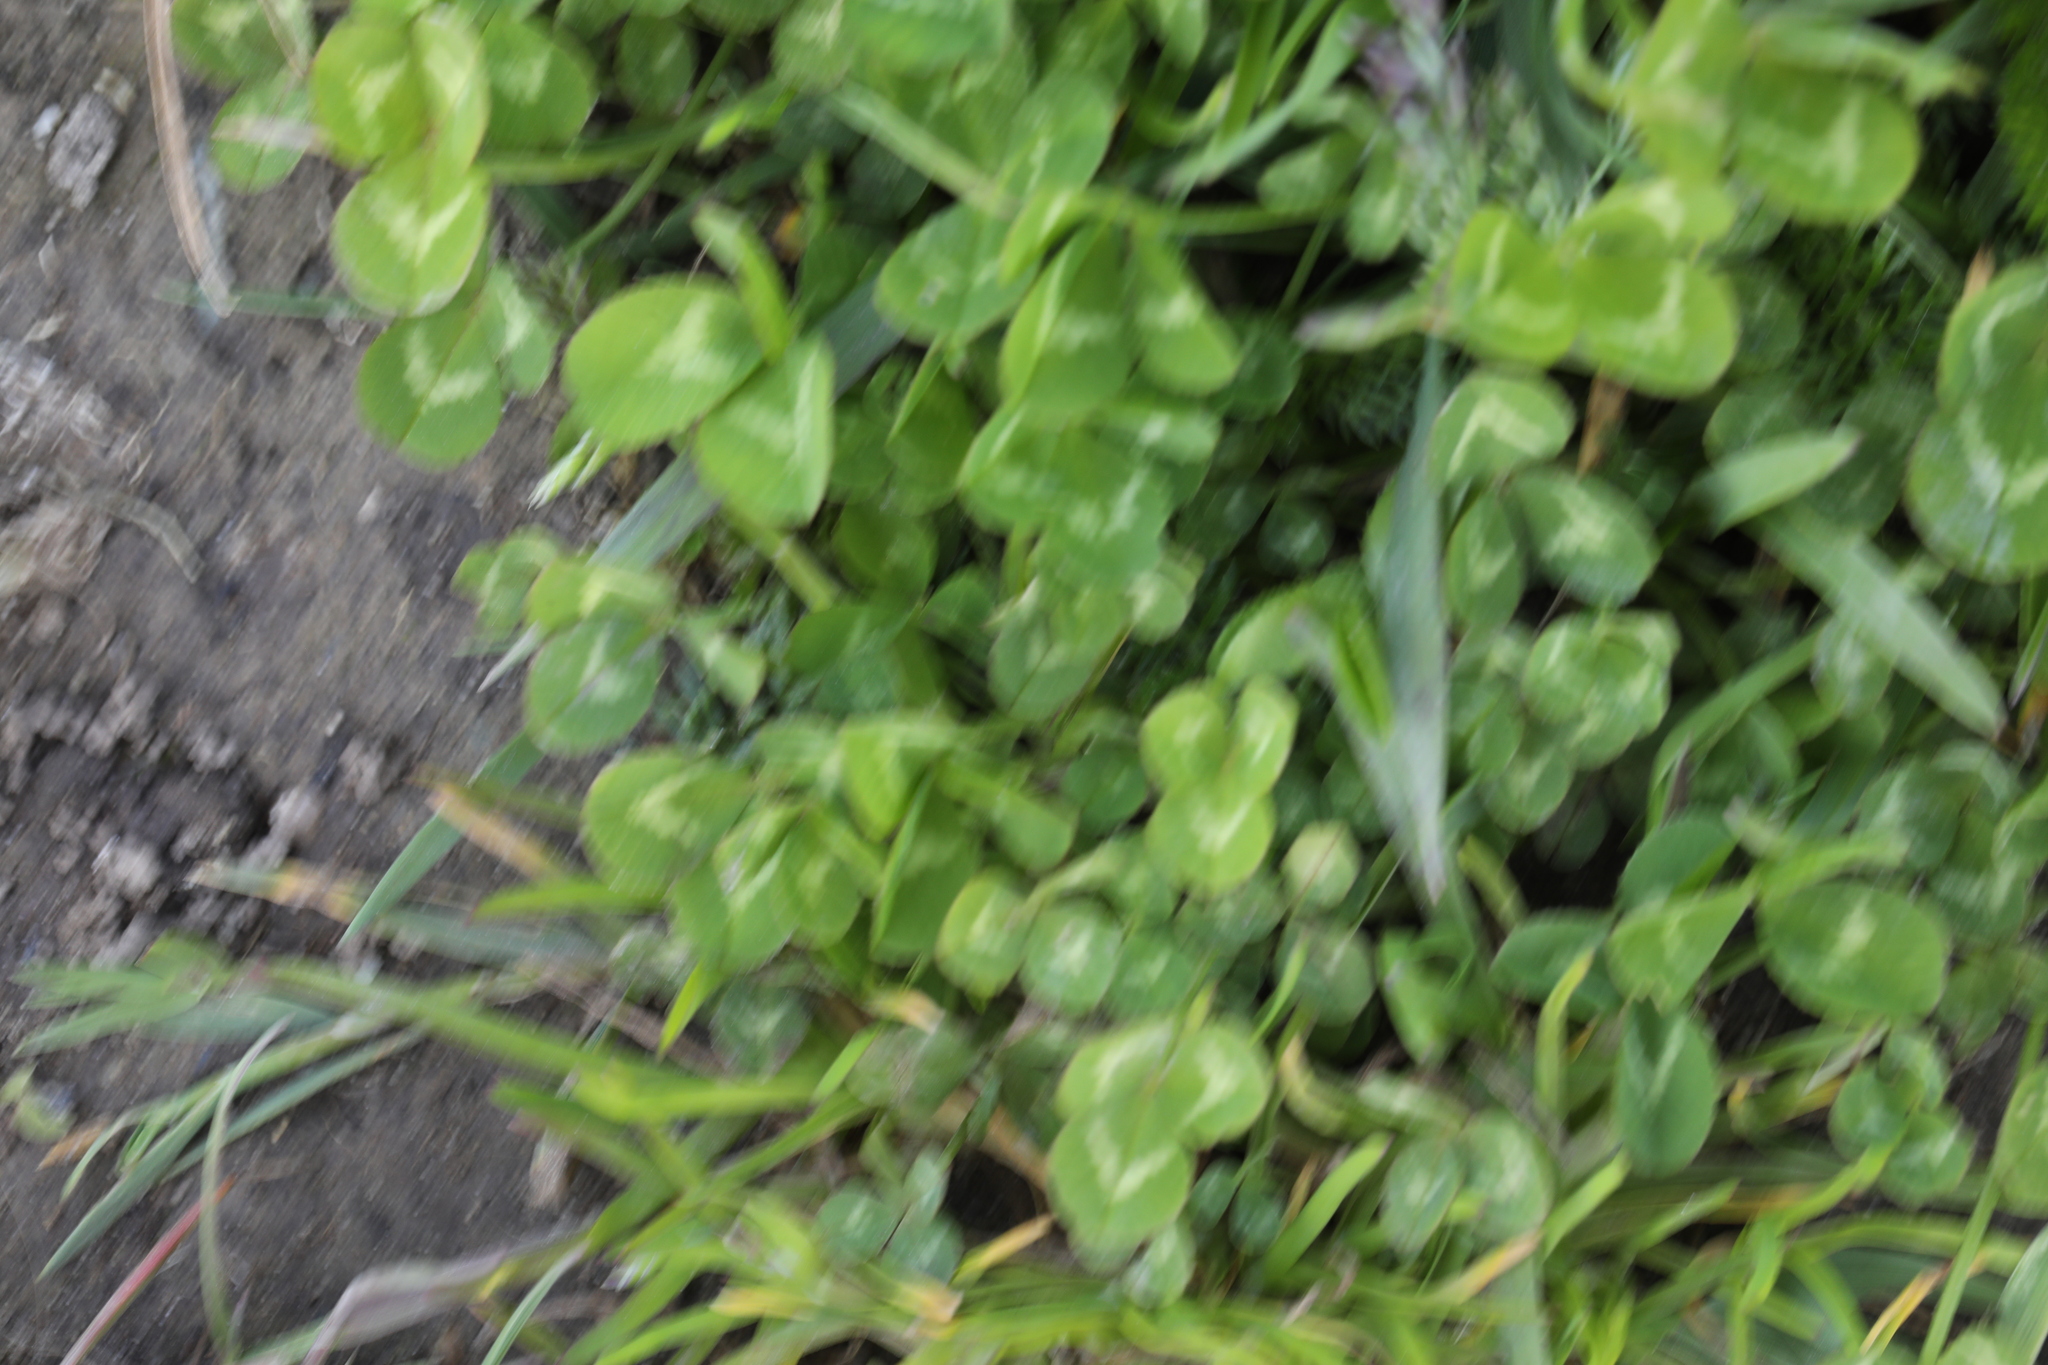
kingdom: Plantae
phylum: Tracheophyta
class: Magnoliopsida
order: Fabales
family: Fabaceae
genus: Trifolium
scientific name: Trifolium repens
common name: White clover
